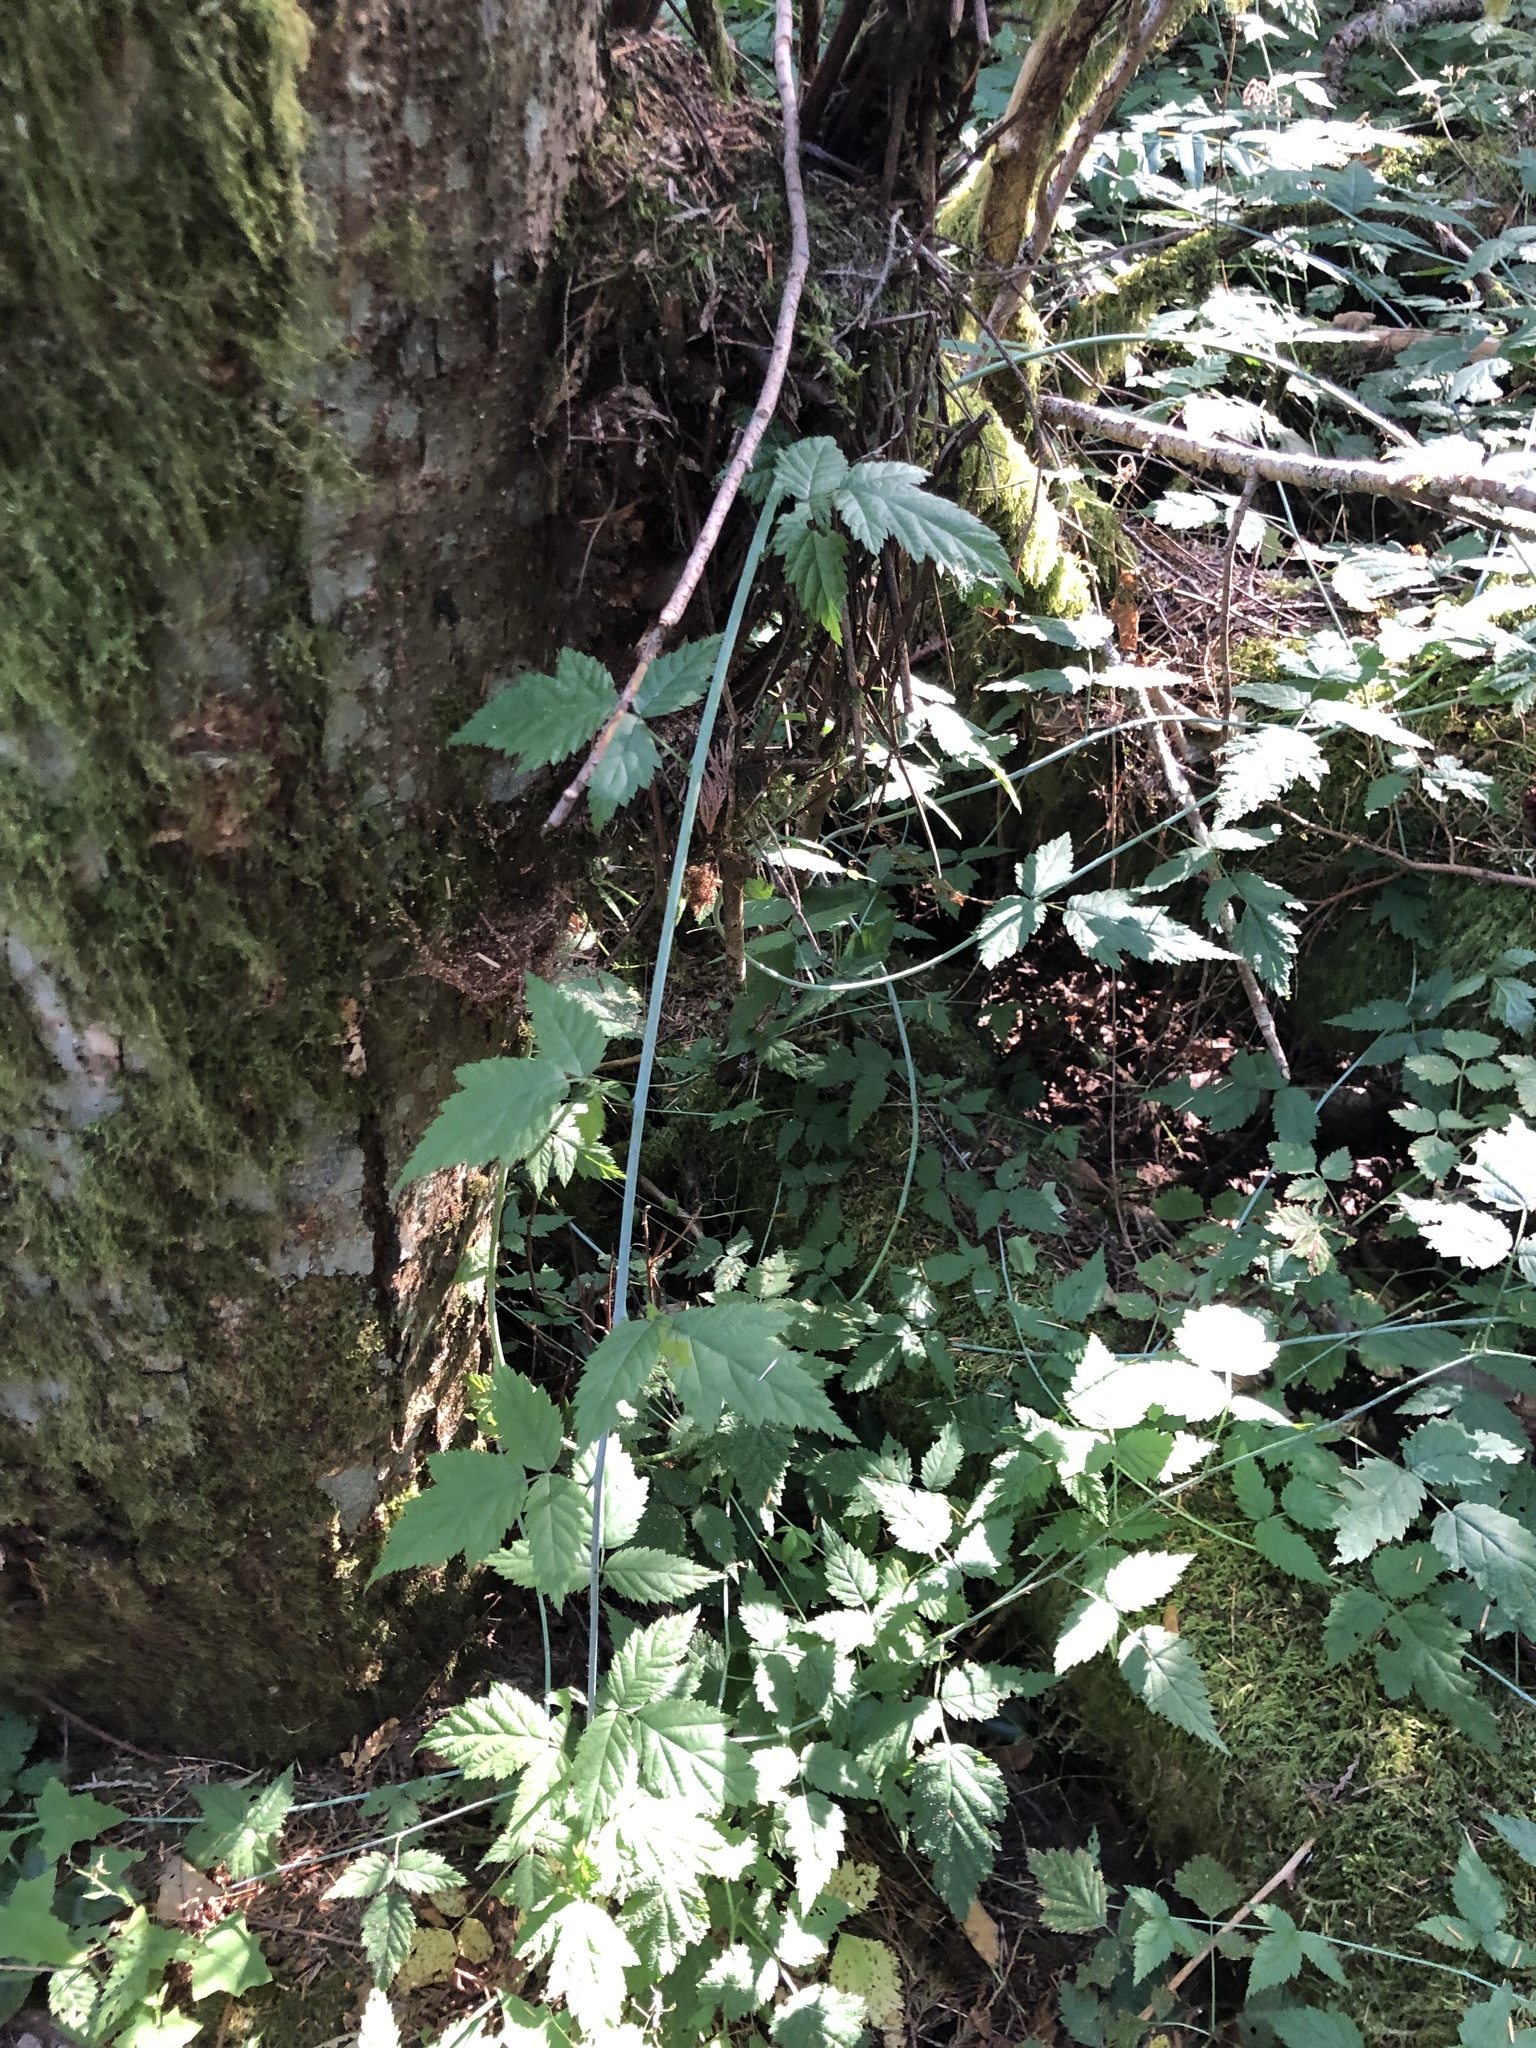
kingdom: Plantae
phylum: Tracheophyta
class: Magnoliopsida
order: Rosales
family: Rosaceae
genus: Rubus
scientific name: Rubus ursinus
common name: Pacific blackberry
